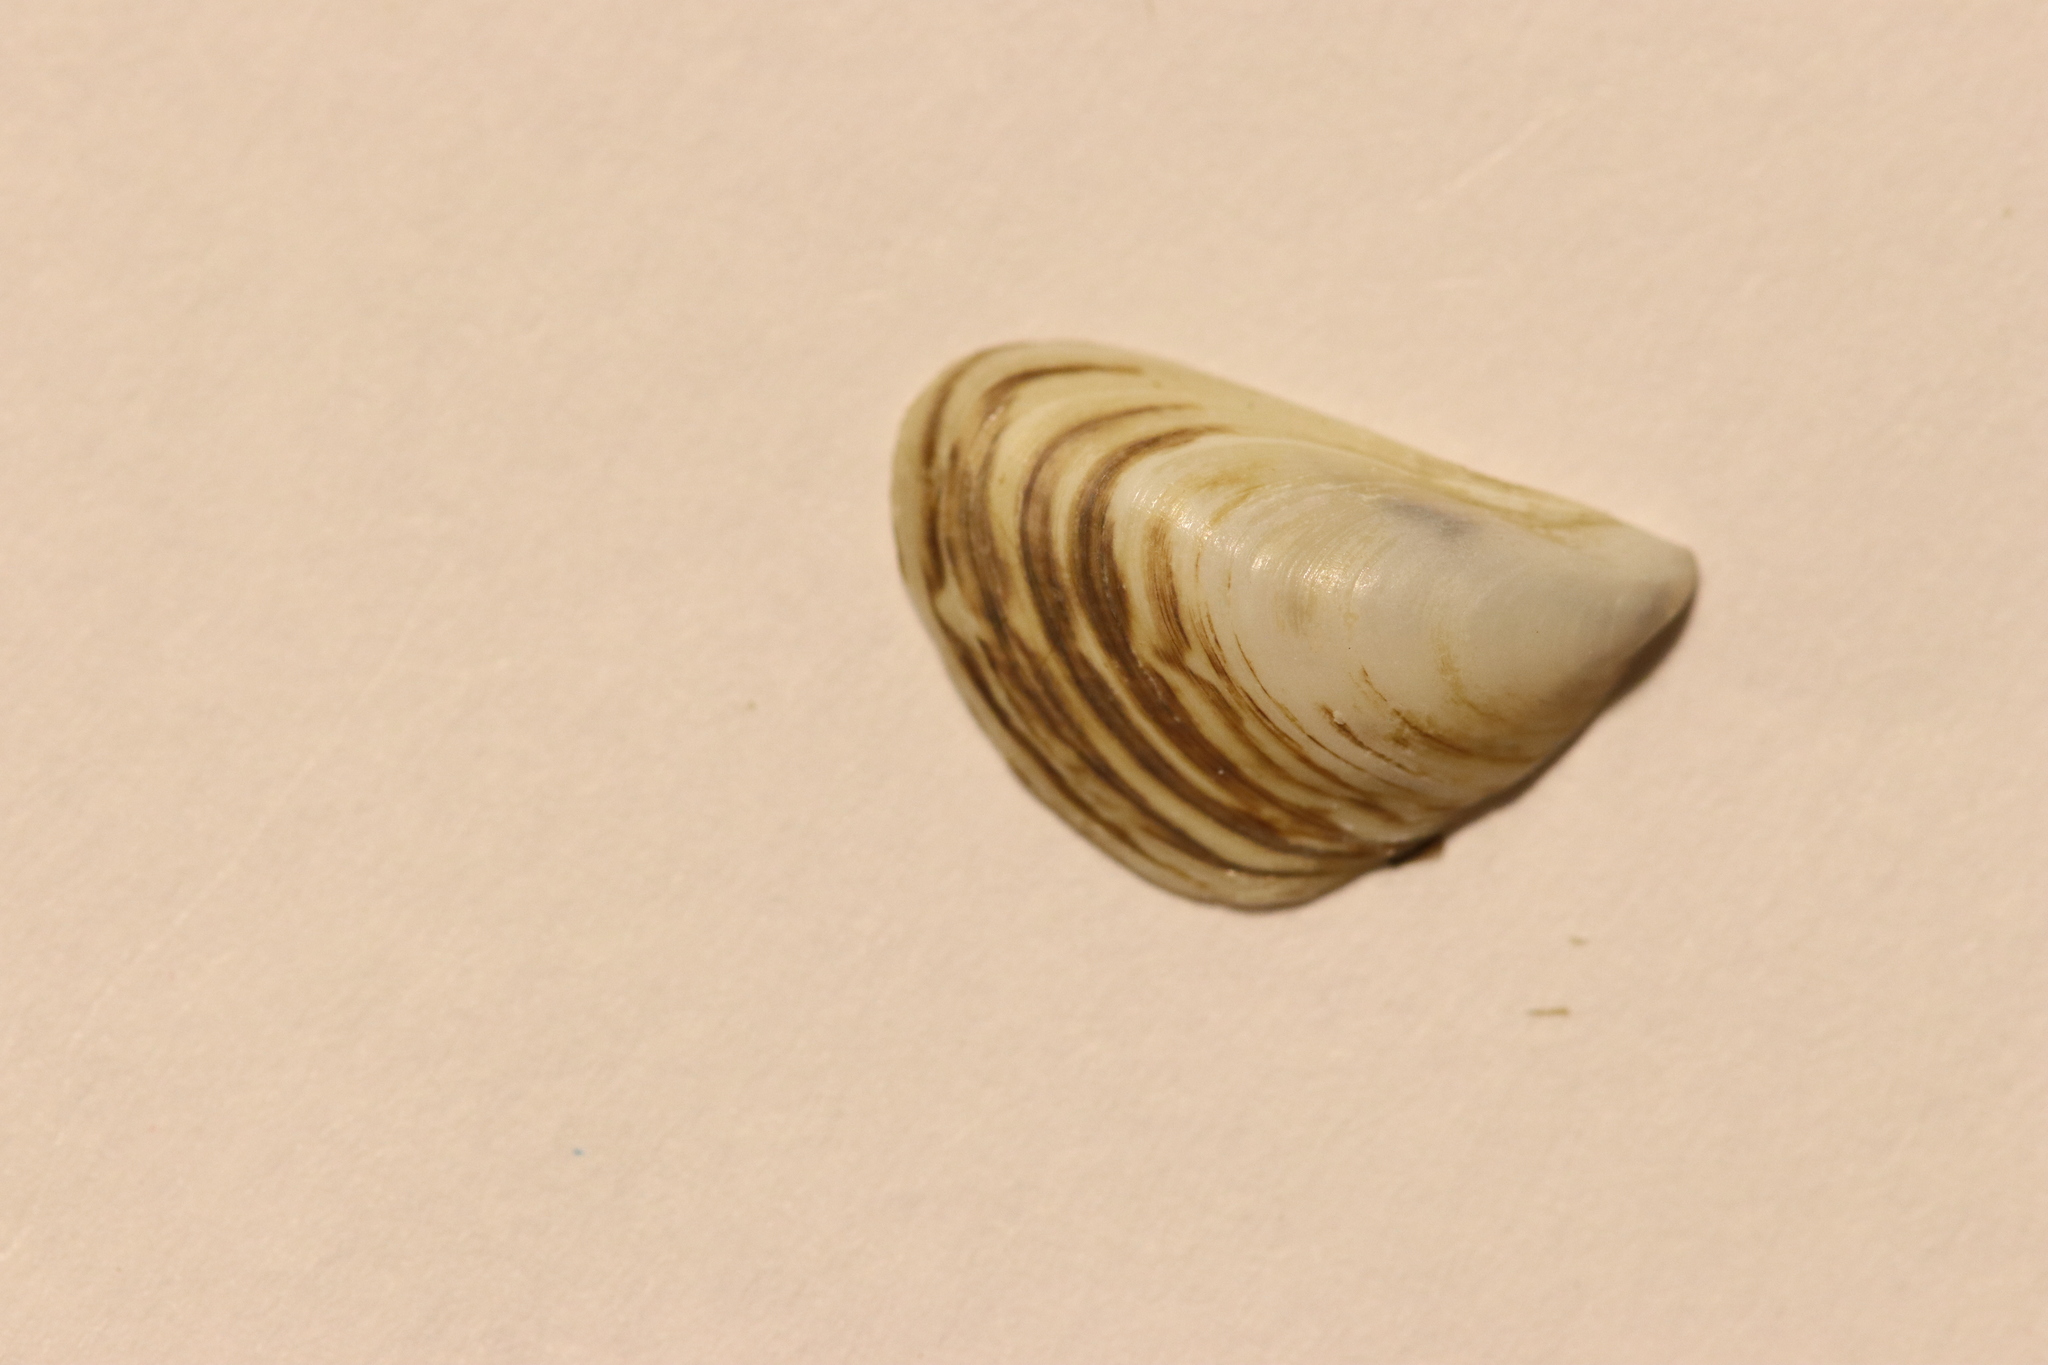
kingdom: Animalia
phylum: Mollusca
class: Bivalvia
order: Myida
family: Dreissenidae
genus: Dreissena
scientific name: Dreissena bugensis
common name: Quagga mussel
